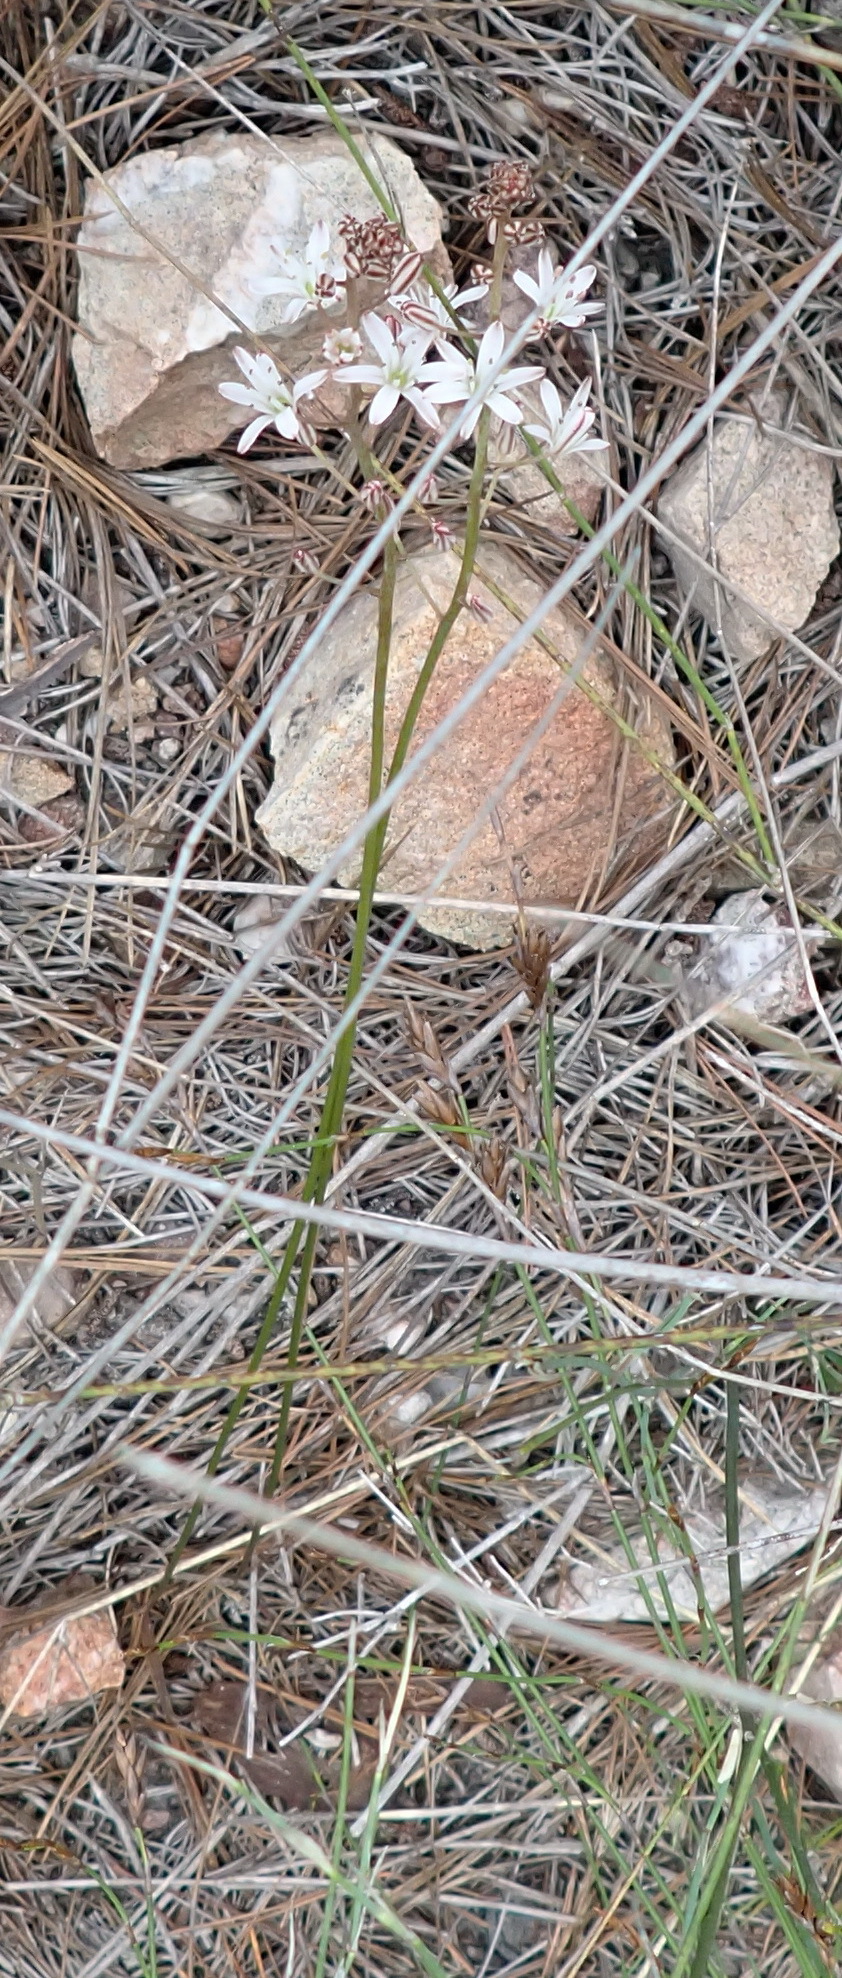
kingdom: Plantae
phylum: Tracheophyta
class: Liliopsida
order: Asparagales
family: Asparagaceae
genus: Eriospermum
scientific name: Eriospermum dielsianum
